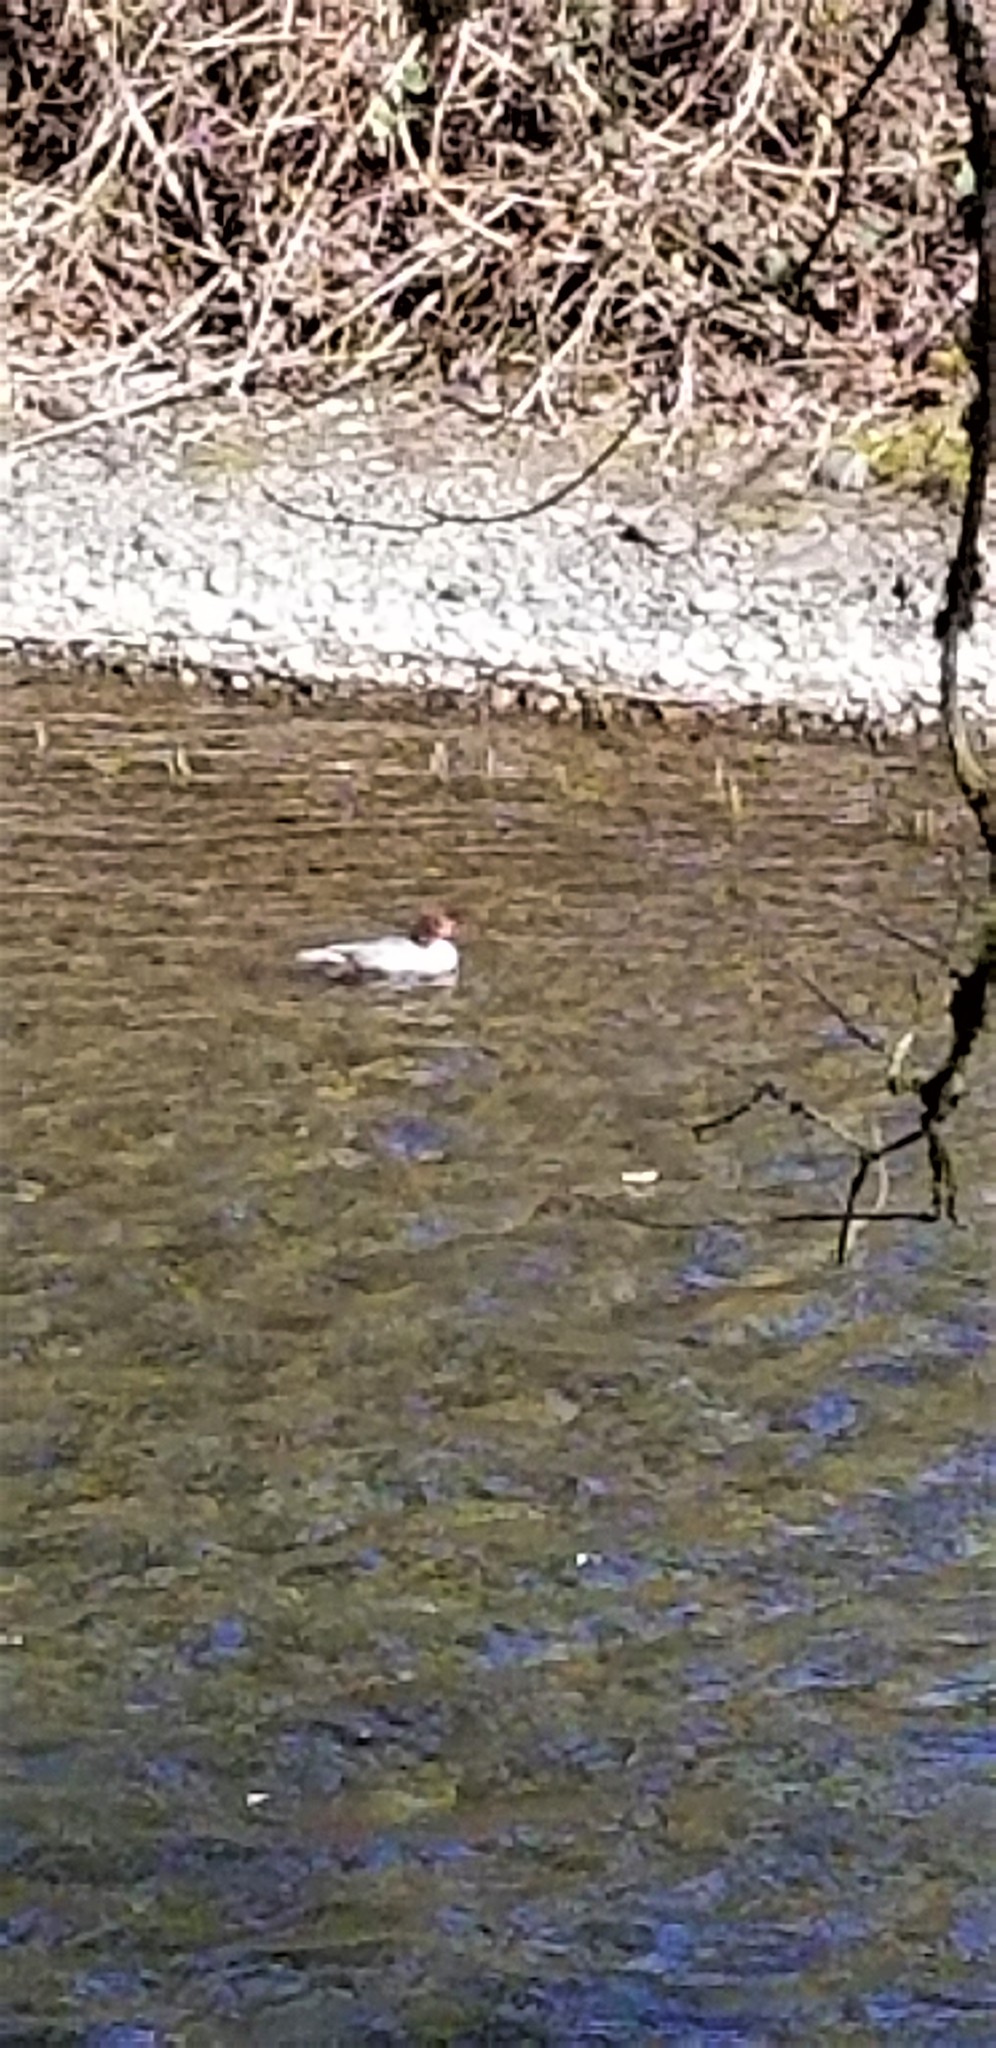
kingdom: Animalia
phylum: Chordata
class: Aves
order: Anseriformes
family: Anatidae
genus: Mergus
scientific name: Mergus merganser
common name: Common merganser
